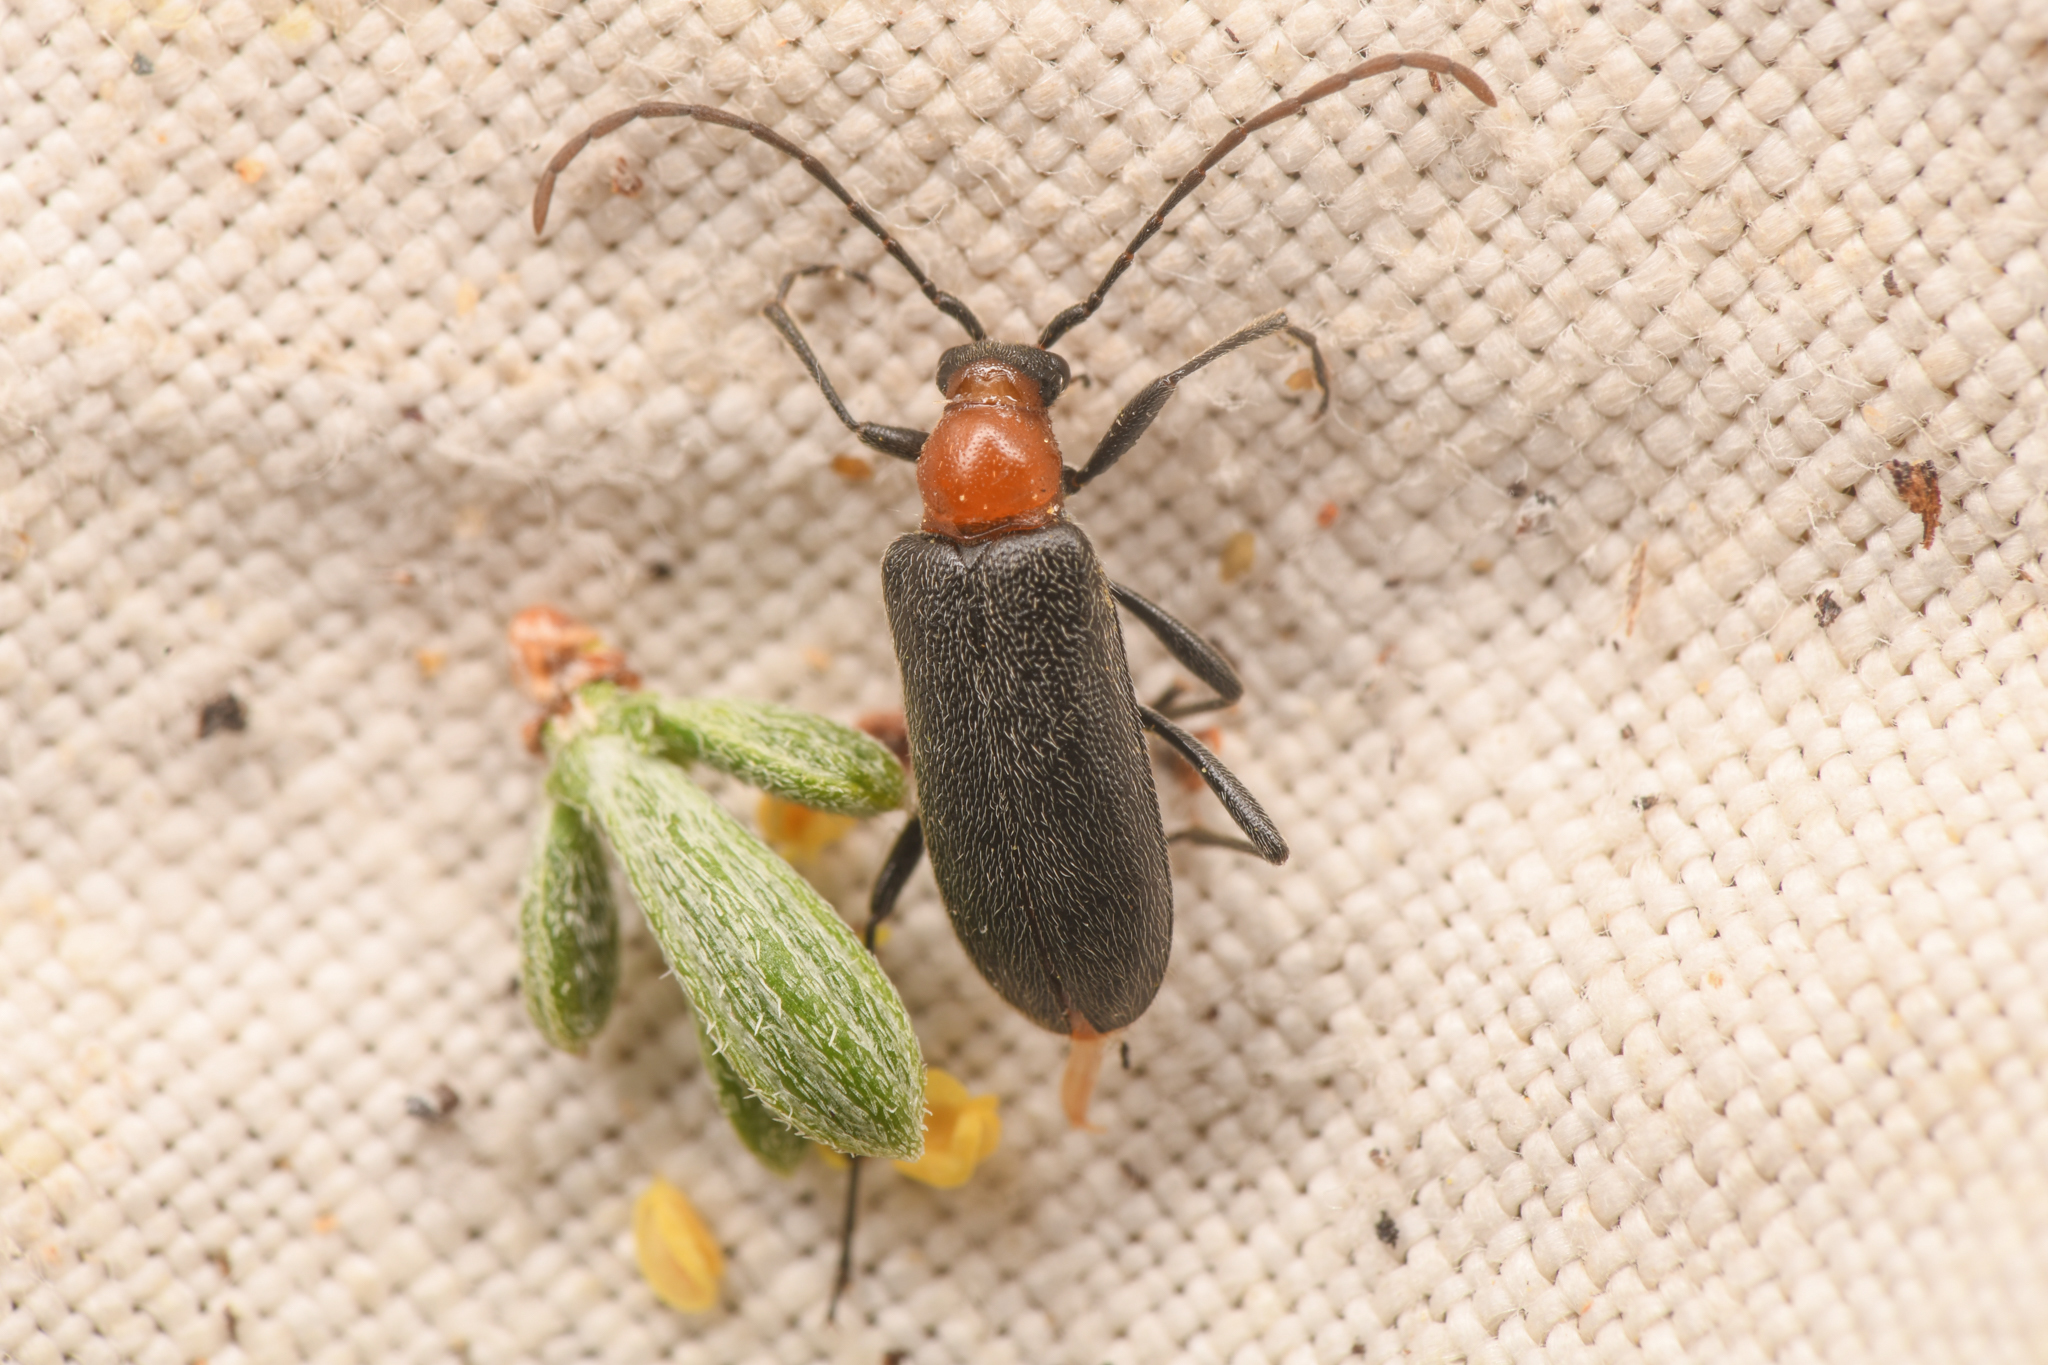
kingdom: Animalia
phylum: Arthropoda
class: Insecta
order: Coleoptera
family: Cerambycidae
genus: Cortodera
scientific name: Cortodera falsa
